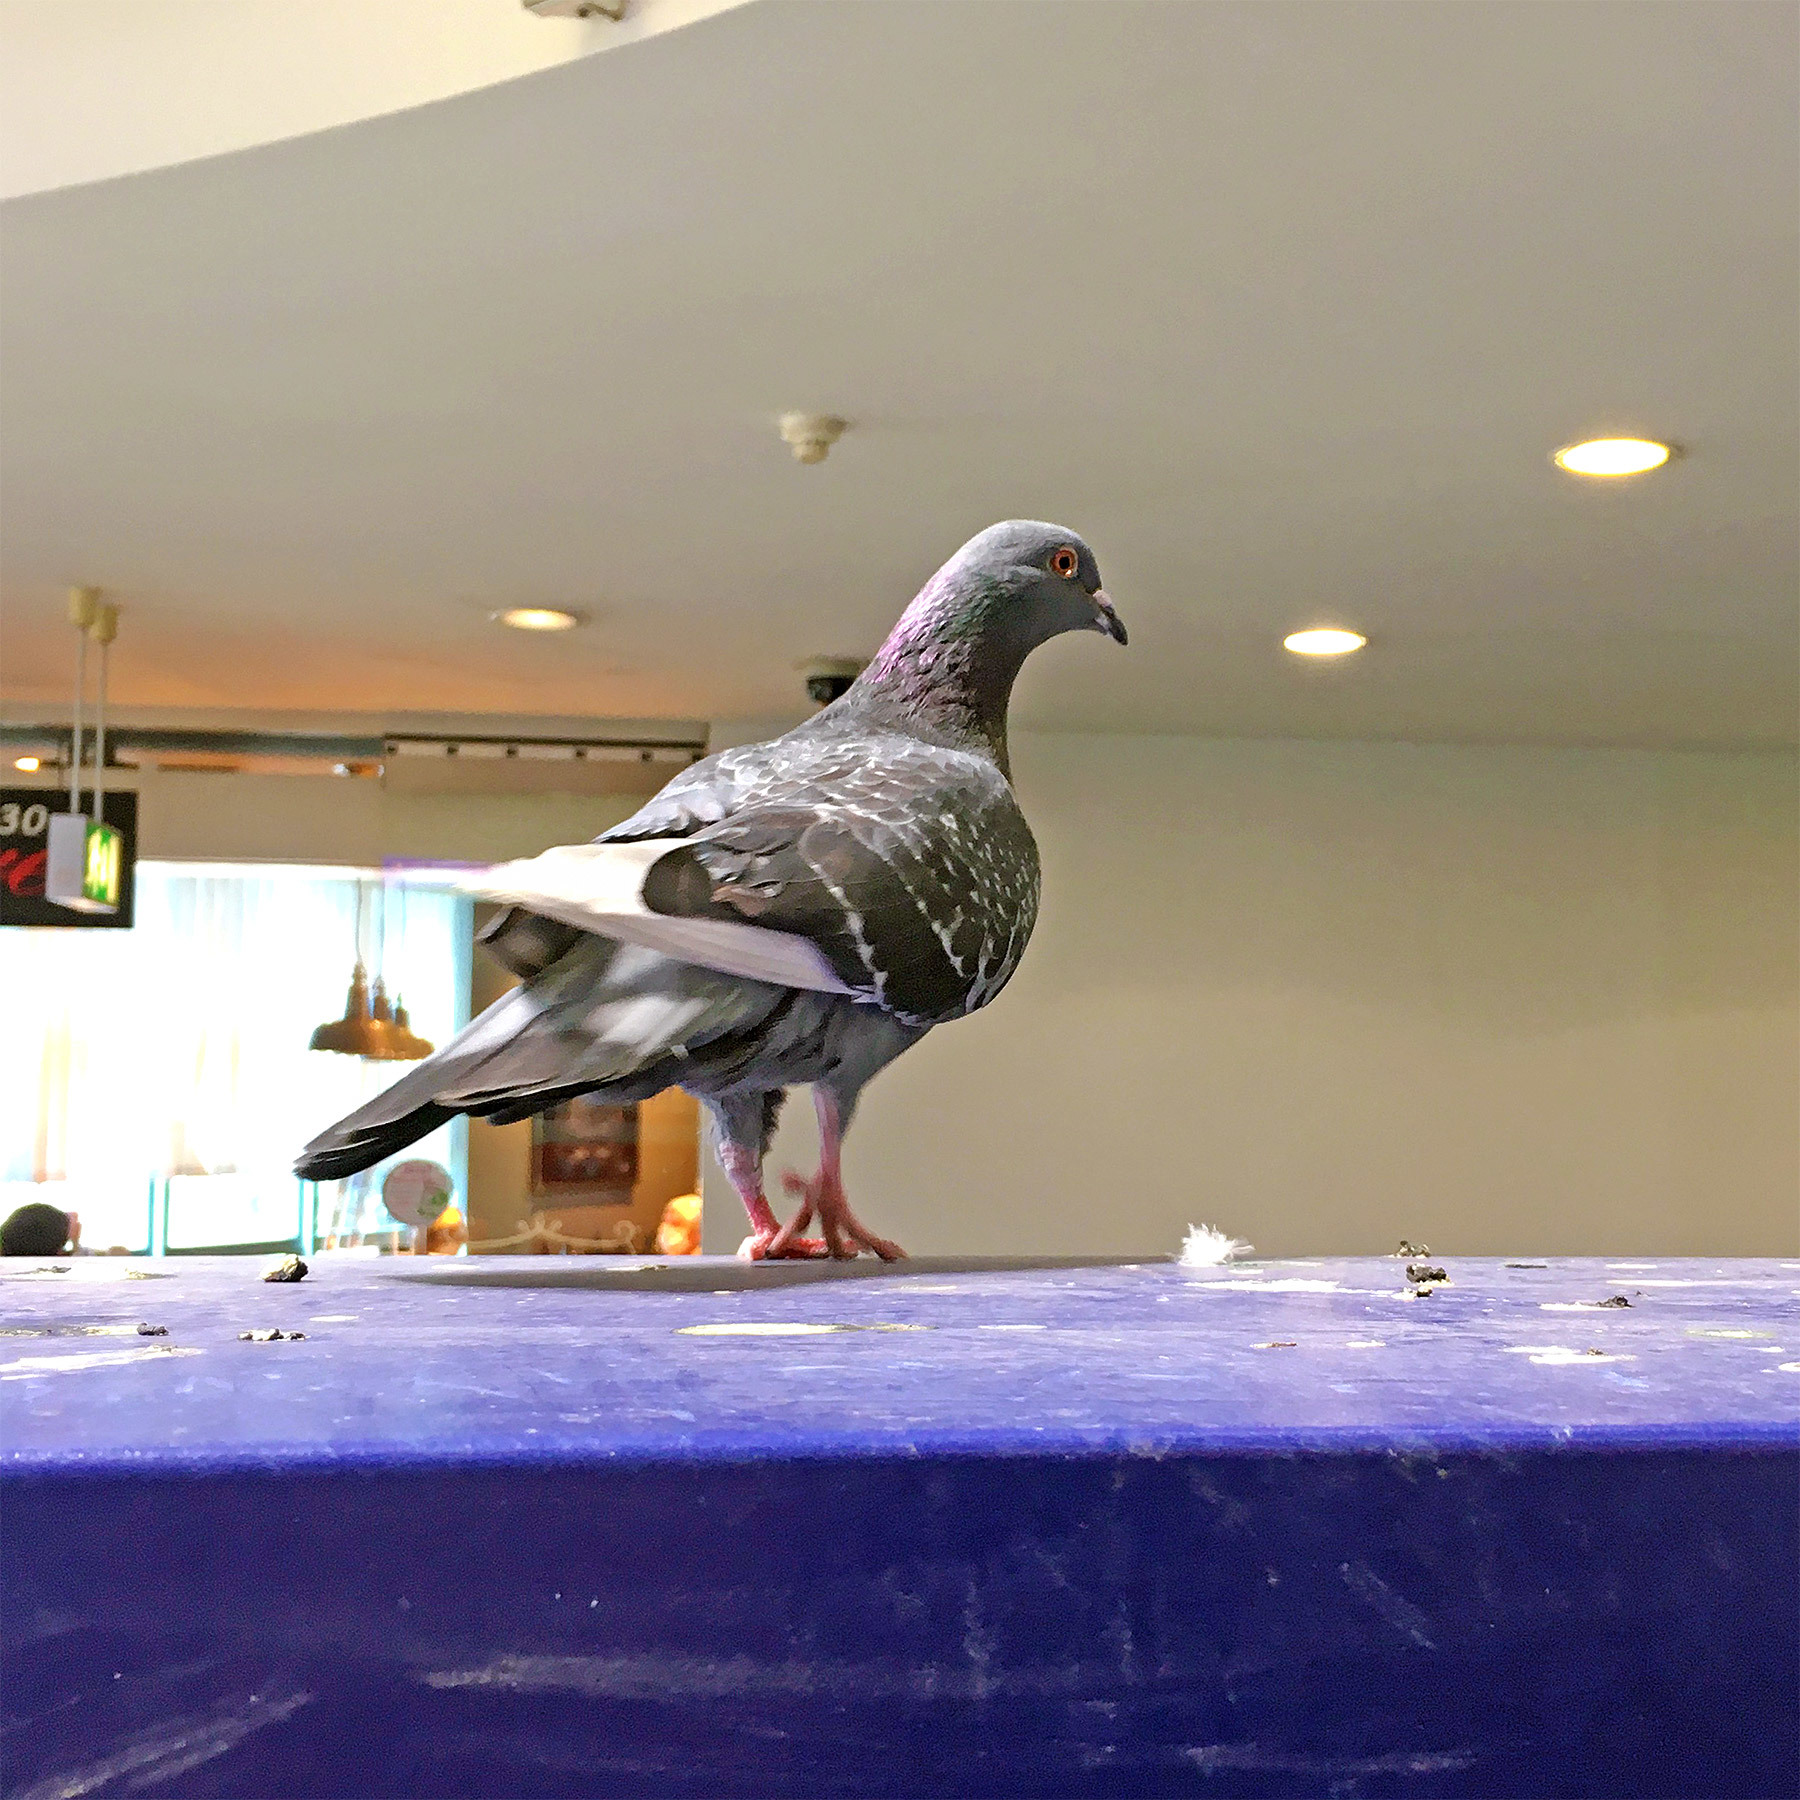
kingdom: Animalia
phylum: Chordata
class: Aves
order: Columbiformes
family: Columbidae
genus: Columba
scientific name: Columba livia
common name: Rock pigeon
